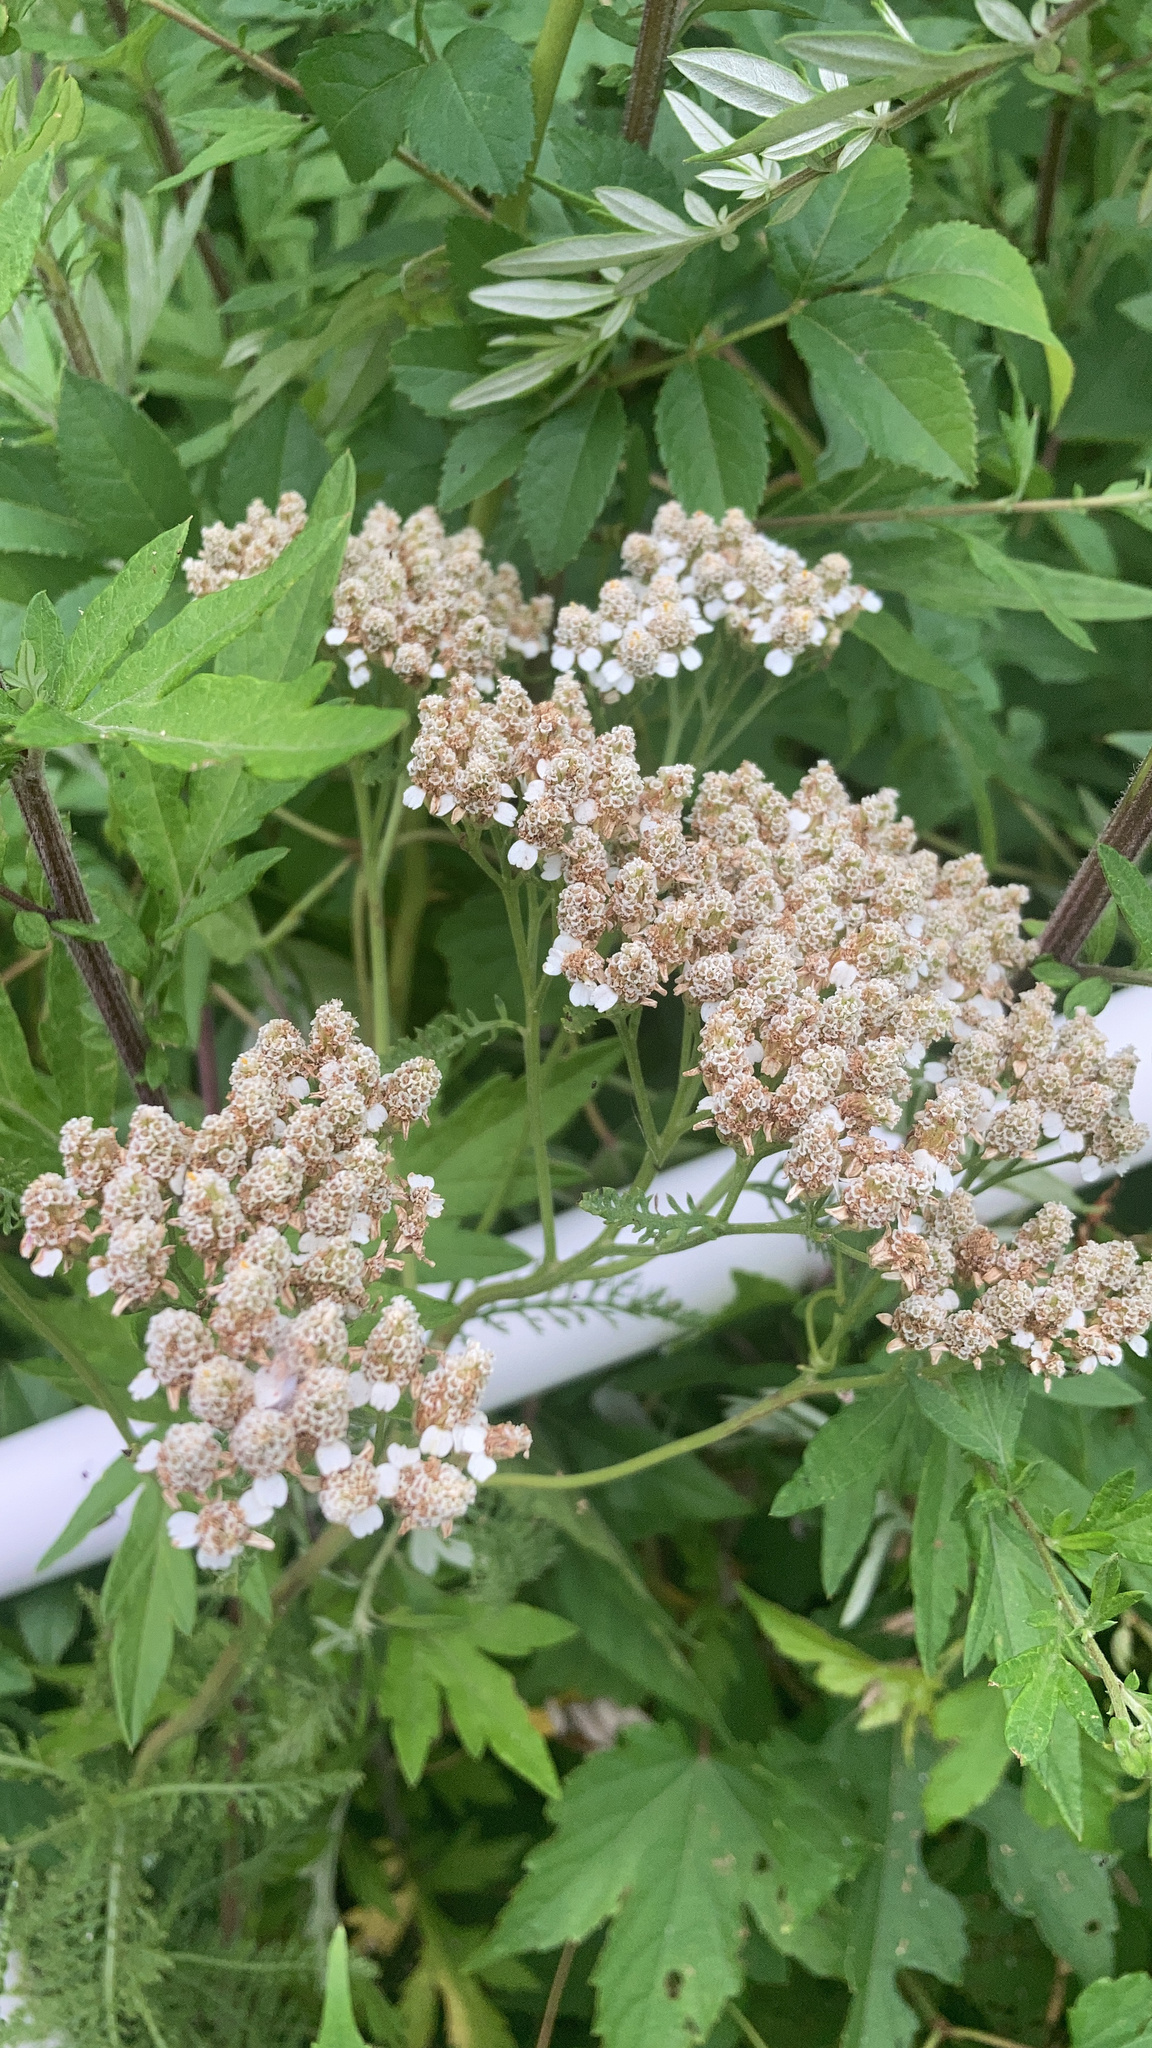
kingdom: Plantae
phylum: Tracheophyta
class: Magnoliopsida
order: Asterales
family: Asteraceae
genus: Achillea
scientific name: Achillea millefolium
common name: Yarrow
